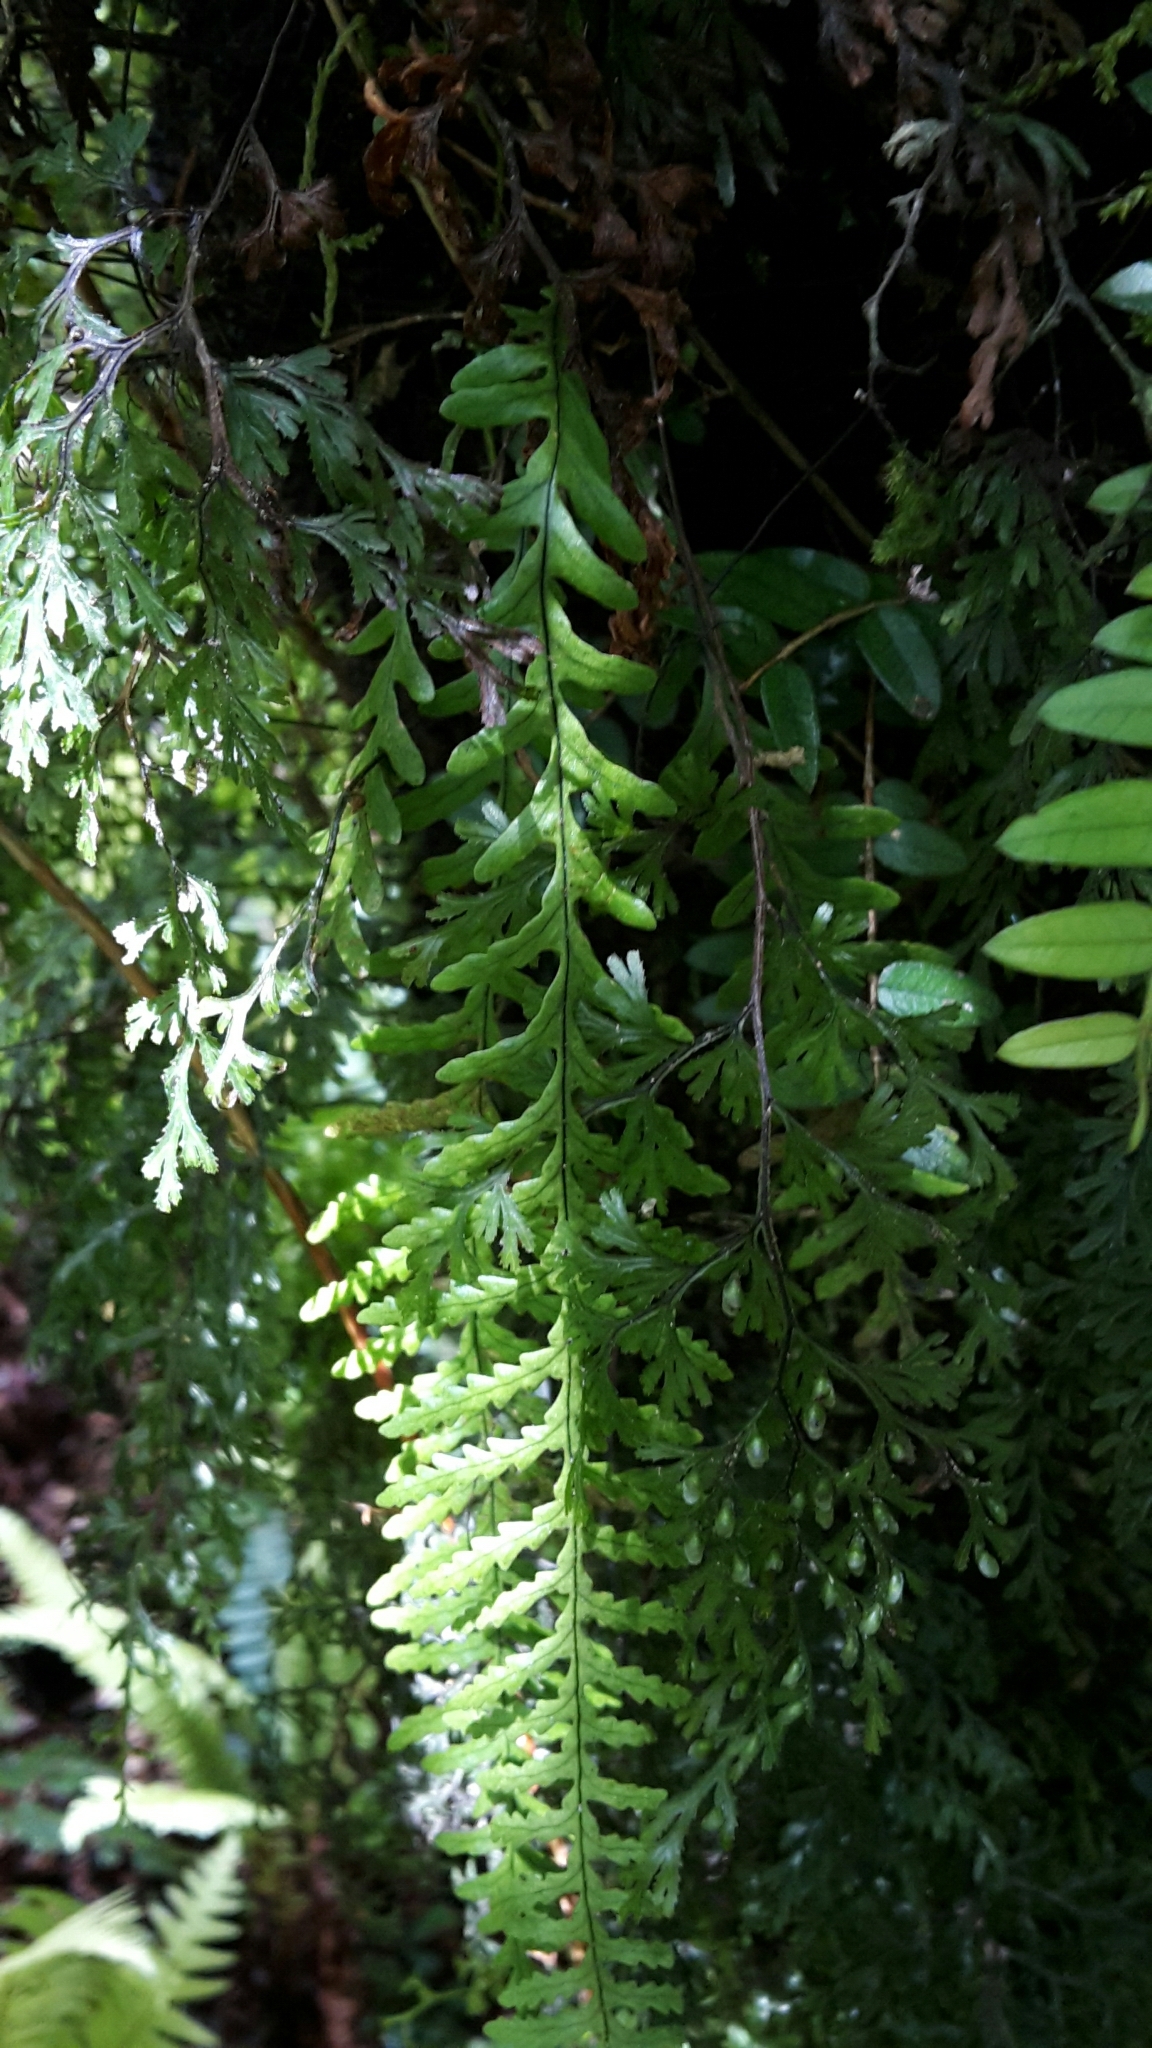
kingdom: Plantae
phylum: Tracheophyta
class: Polypodiopsida
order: Polypodiales
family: Polypodiaceae
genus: Notogrammitis
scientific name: Notogrammitis heterophylla
